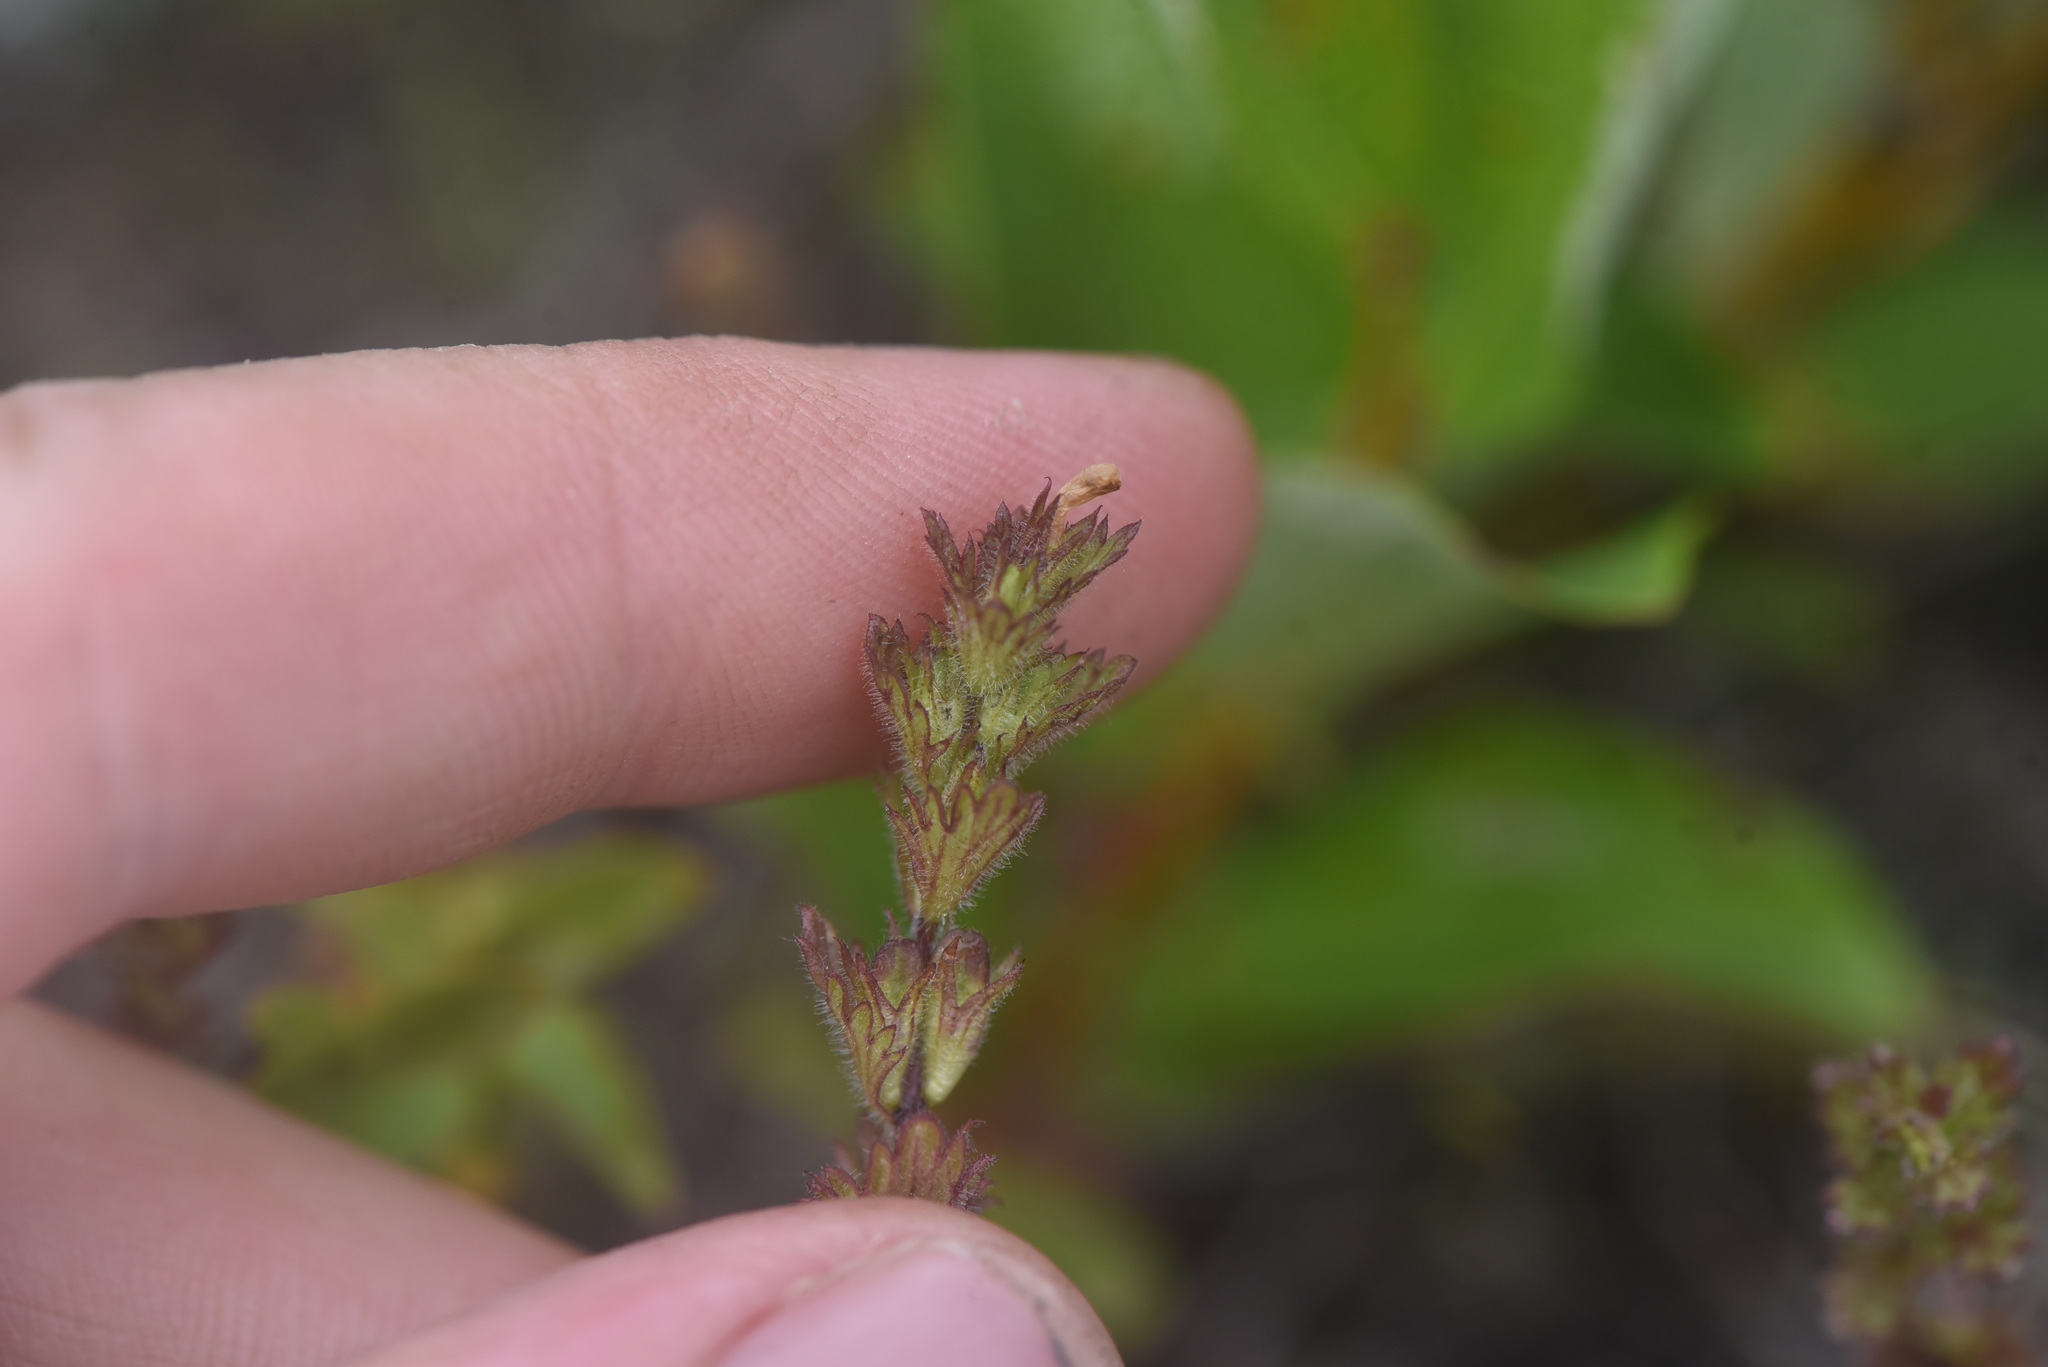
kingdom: Plantae
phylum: Tracheophyta
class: Magnoliopsida
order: Lamiales
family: Orobanchaceae
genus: Euphrasia
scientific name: Euphrasia subarctica
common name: Subarctic eyebright
